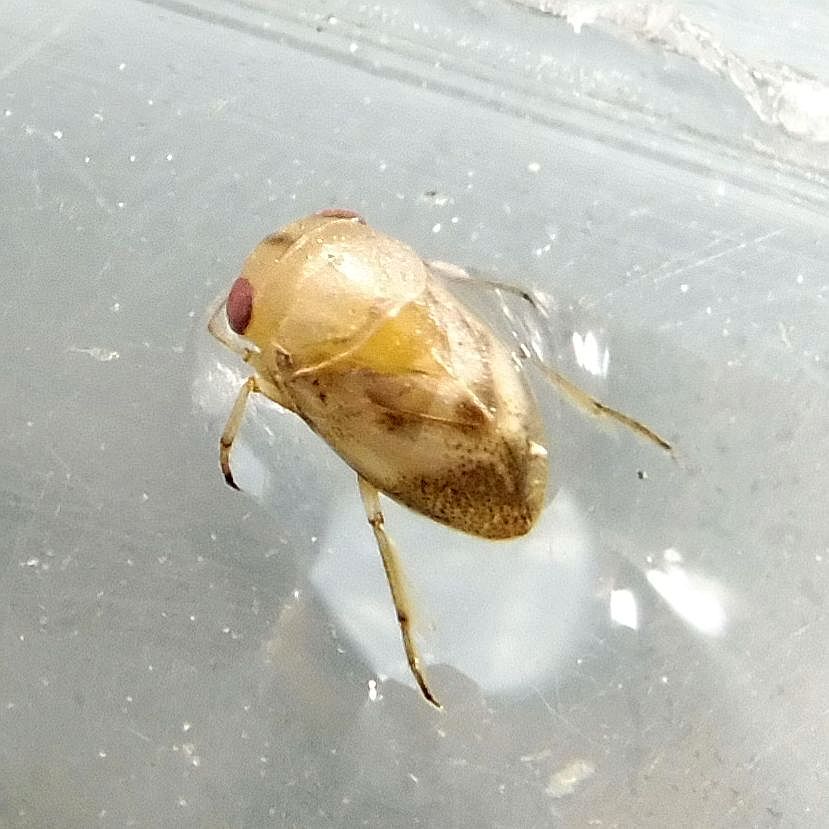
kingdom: Animalia
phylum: Arthropoda
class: Insecta
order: Hemiptera
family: Pleidae
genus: Plea
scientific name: Plea minutissima
